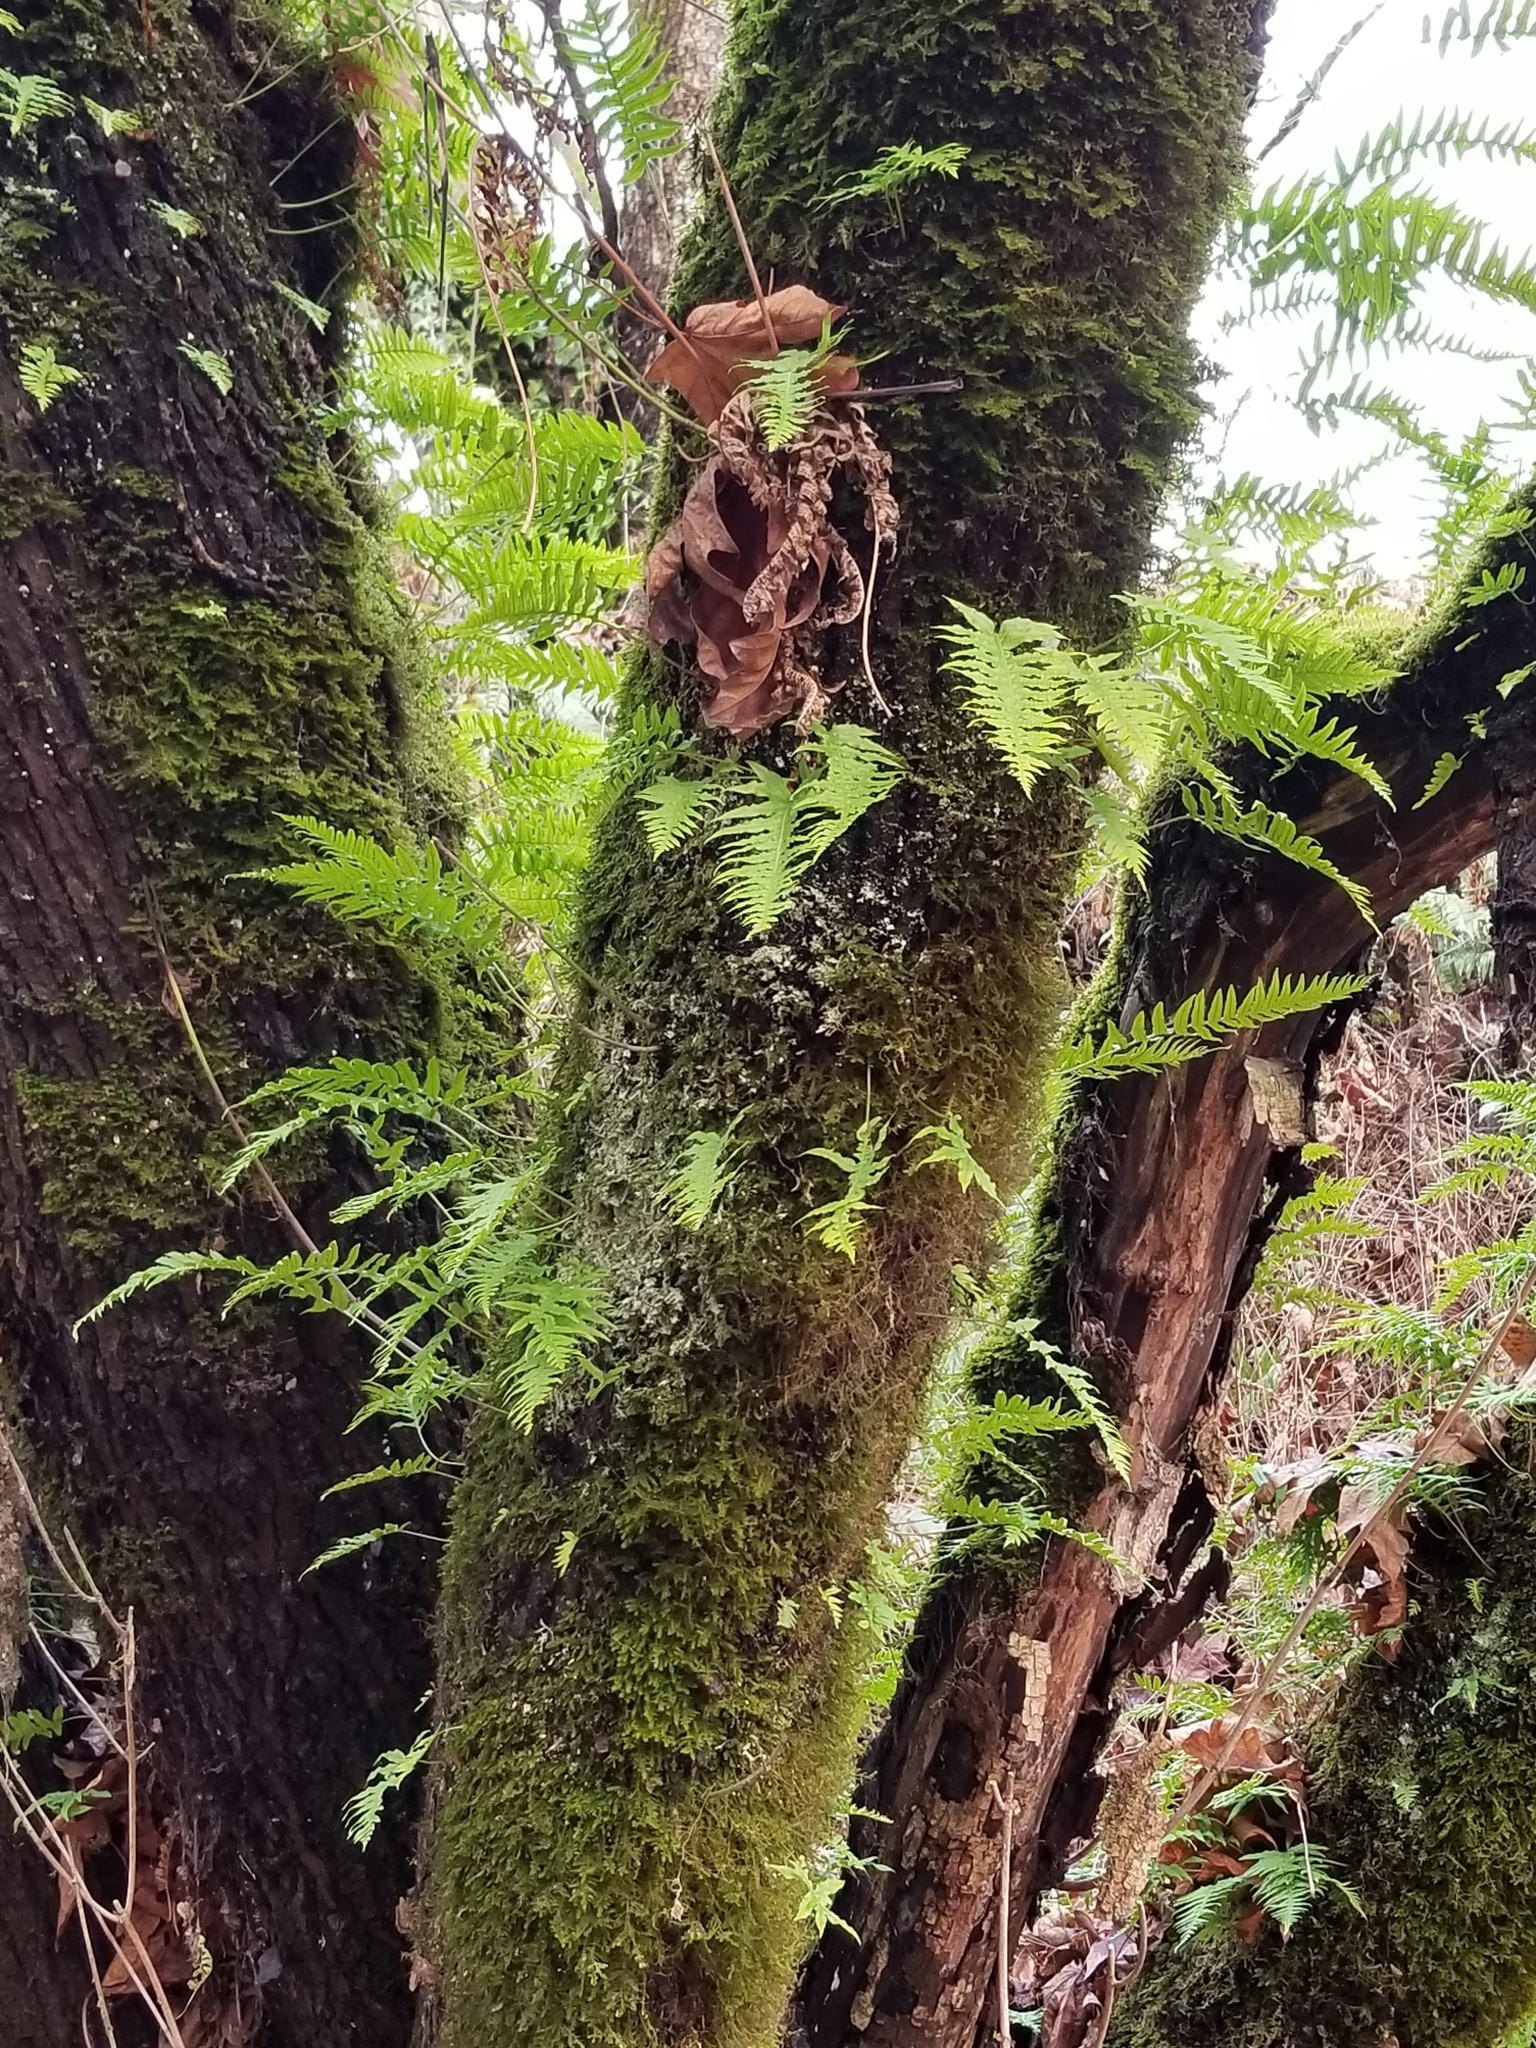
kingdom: Plantae
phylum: Tracheophyta
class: Polypodiopsida
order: Polypodiales
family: Polypodiaceae
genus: Polypodium
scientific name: Polypodium glycyrrhiza
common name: Licorice fern
